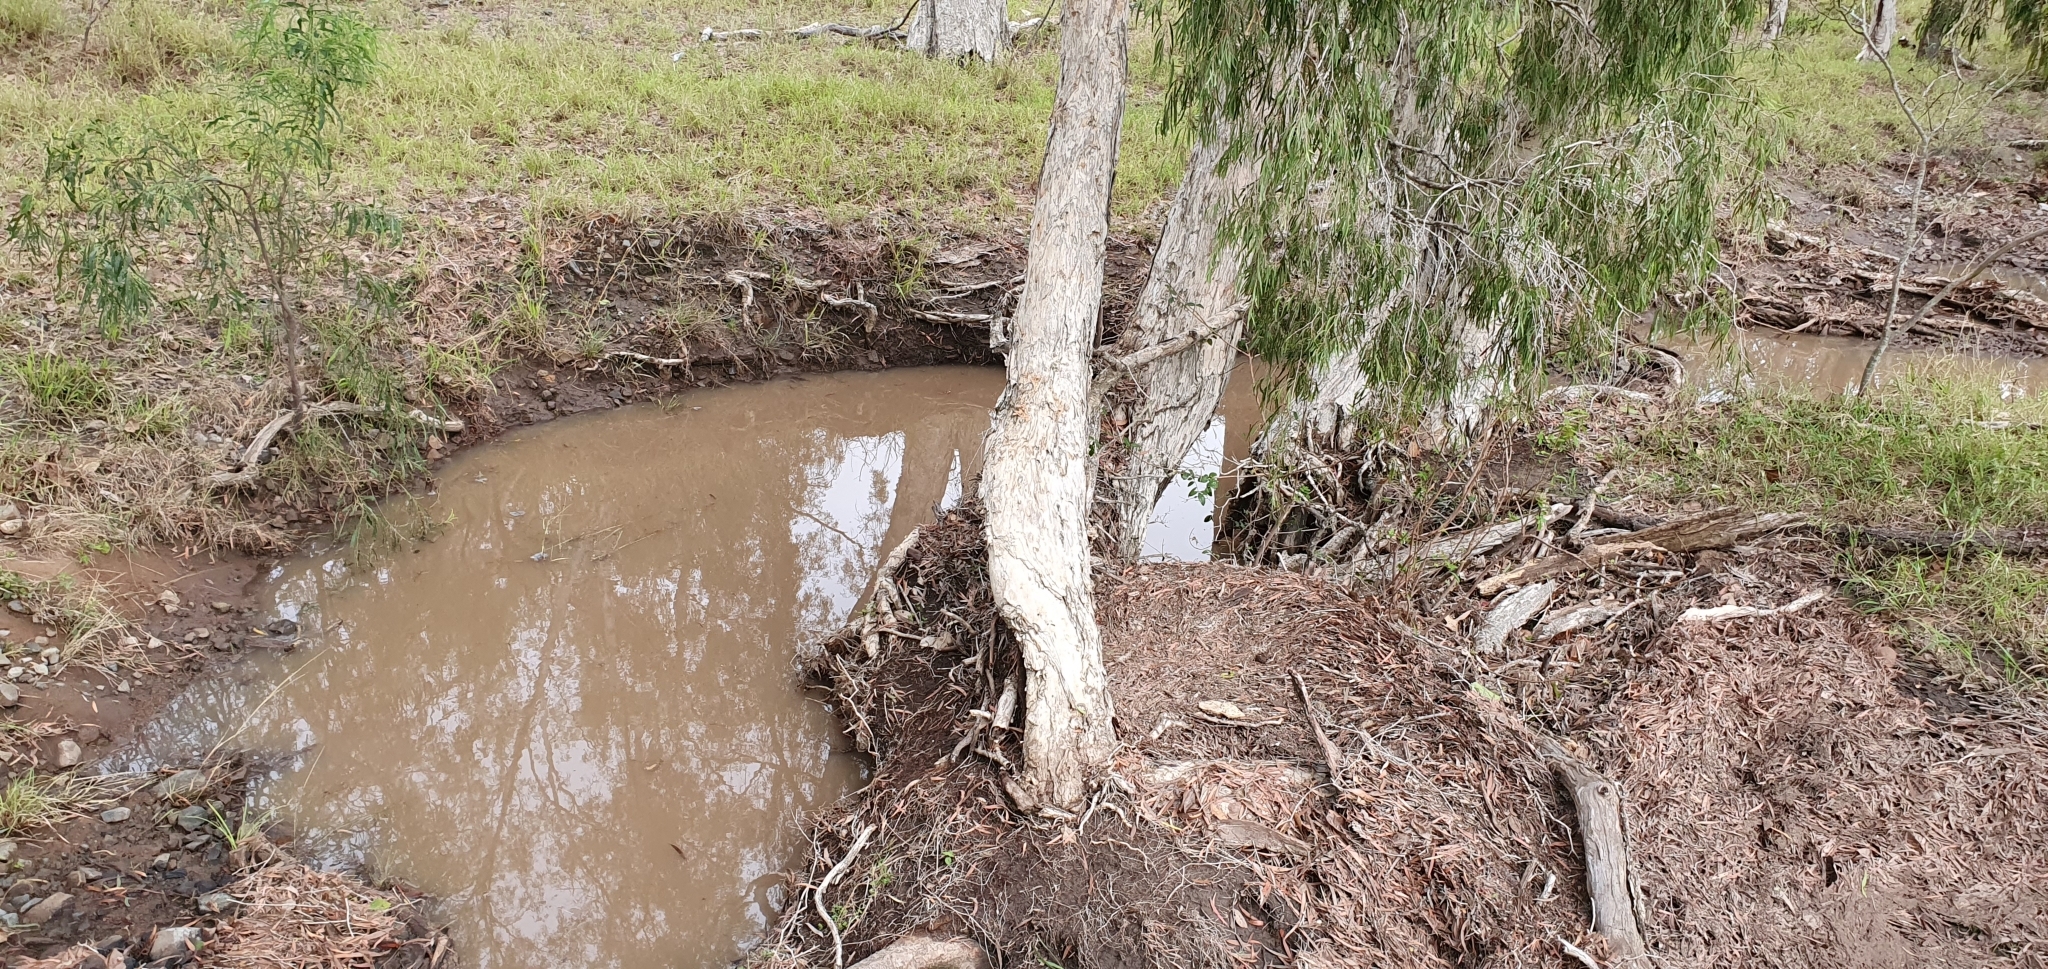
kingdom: Animalia
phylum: Chordata
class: Amphibia
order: Anura
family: Limnodynastidae
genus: Limnodynastes
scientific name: Limnodynastes salmini
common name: Salmon-striped frog
